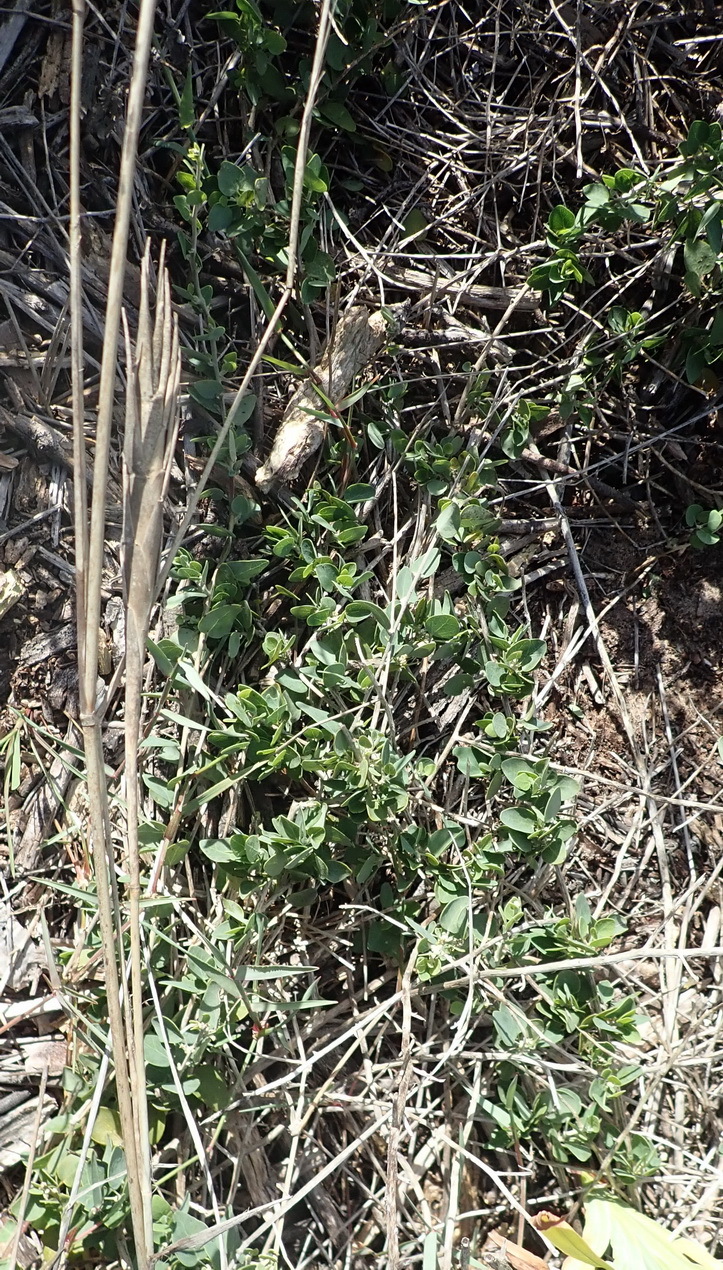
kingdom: Plantae
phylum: Tracheophyta
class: Magnoliopsida
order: Ranunculales
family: Menispermaceae
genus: Cissampelos
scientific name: Cissampelos capensis
